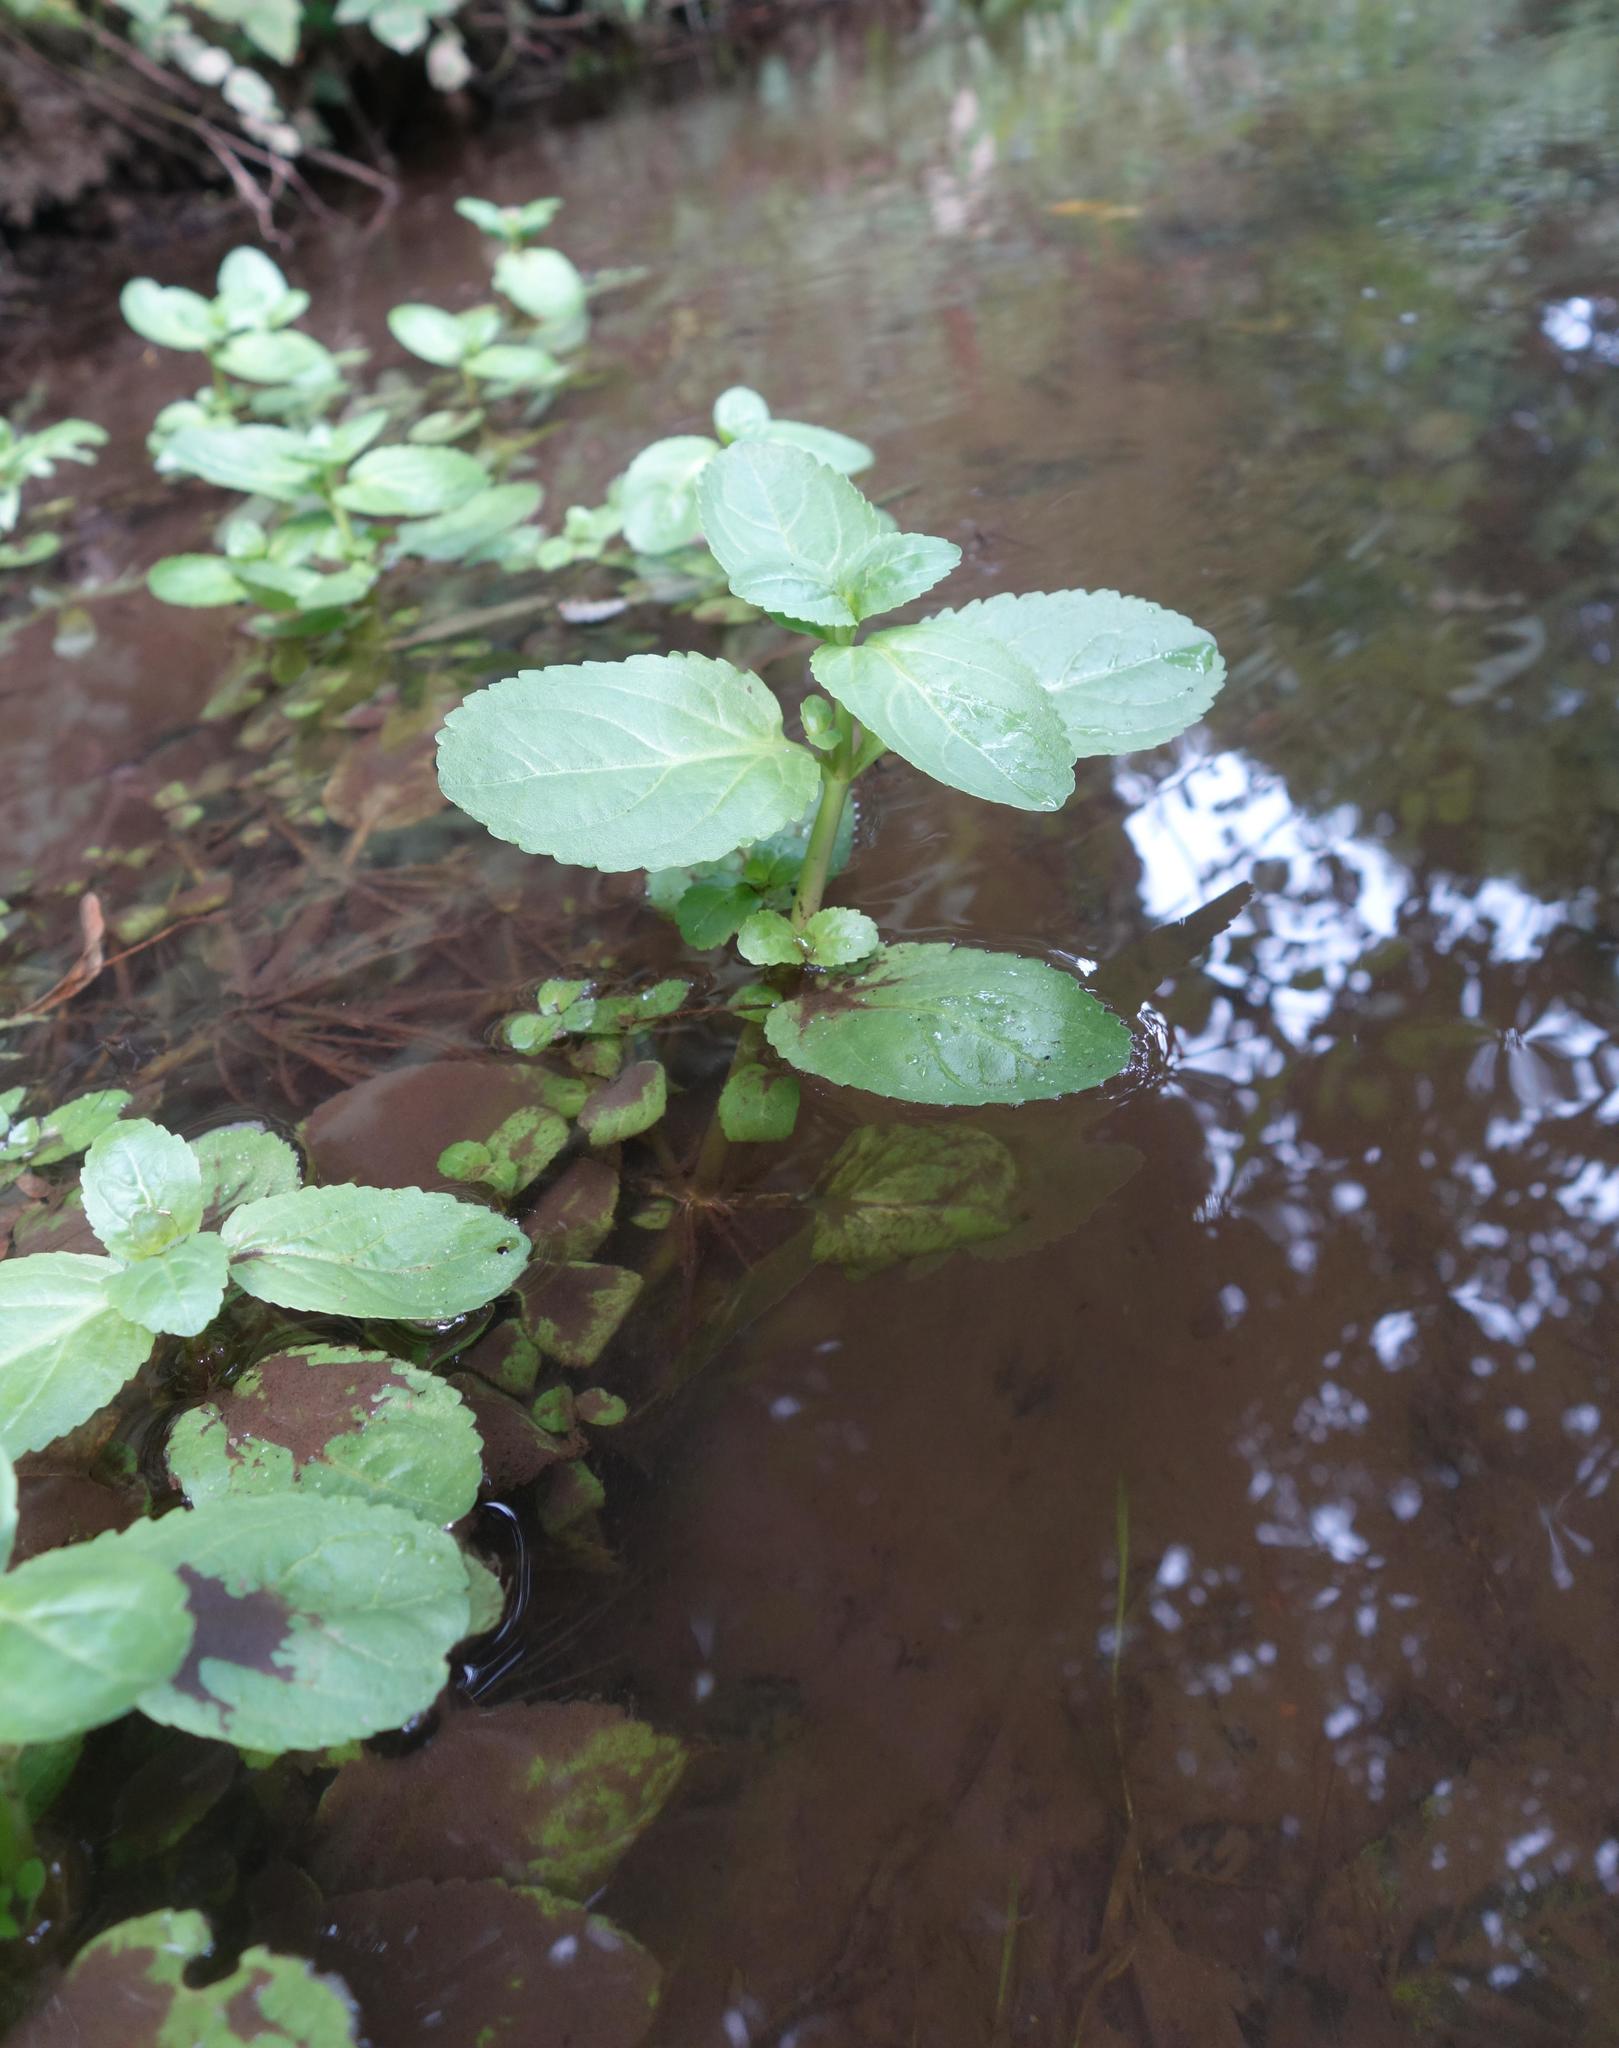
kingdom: Plantae
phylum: Tracheophyta
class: Magnoliopsida
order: Lamiales
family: Plantaginaceae
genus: Veronica
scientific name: Veronica beccabunga
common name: Brooklime
